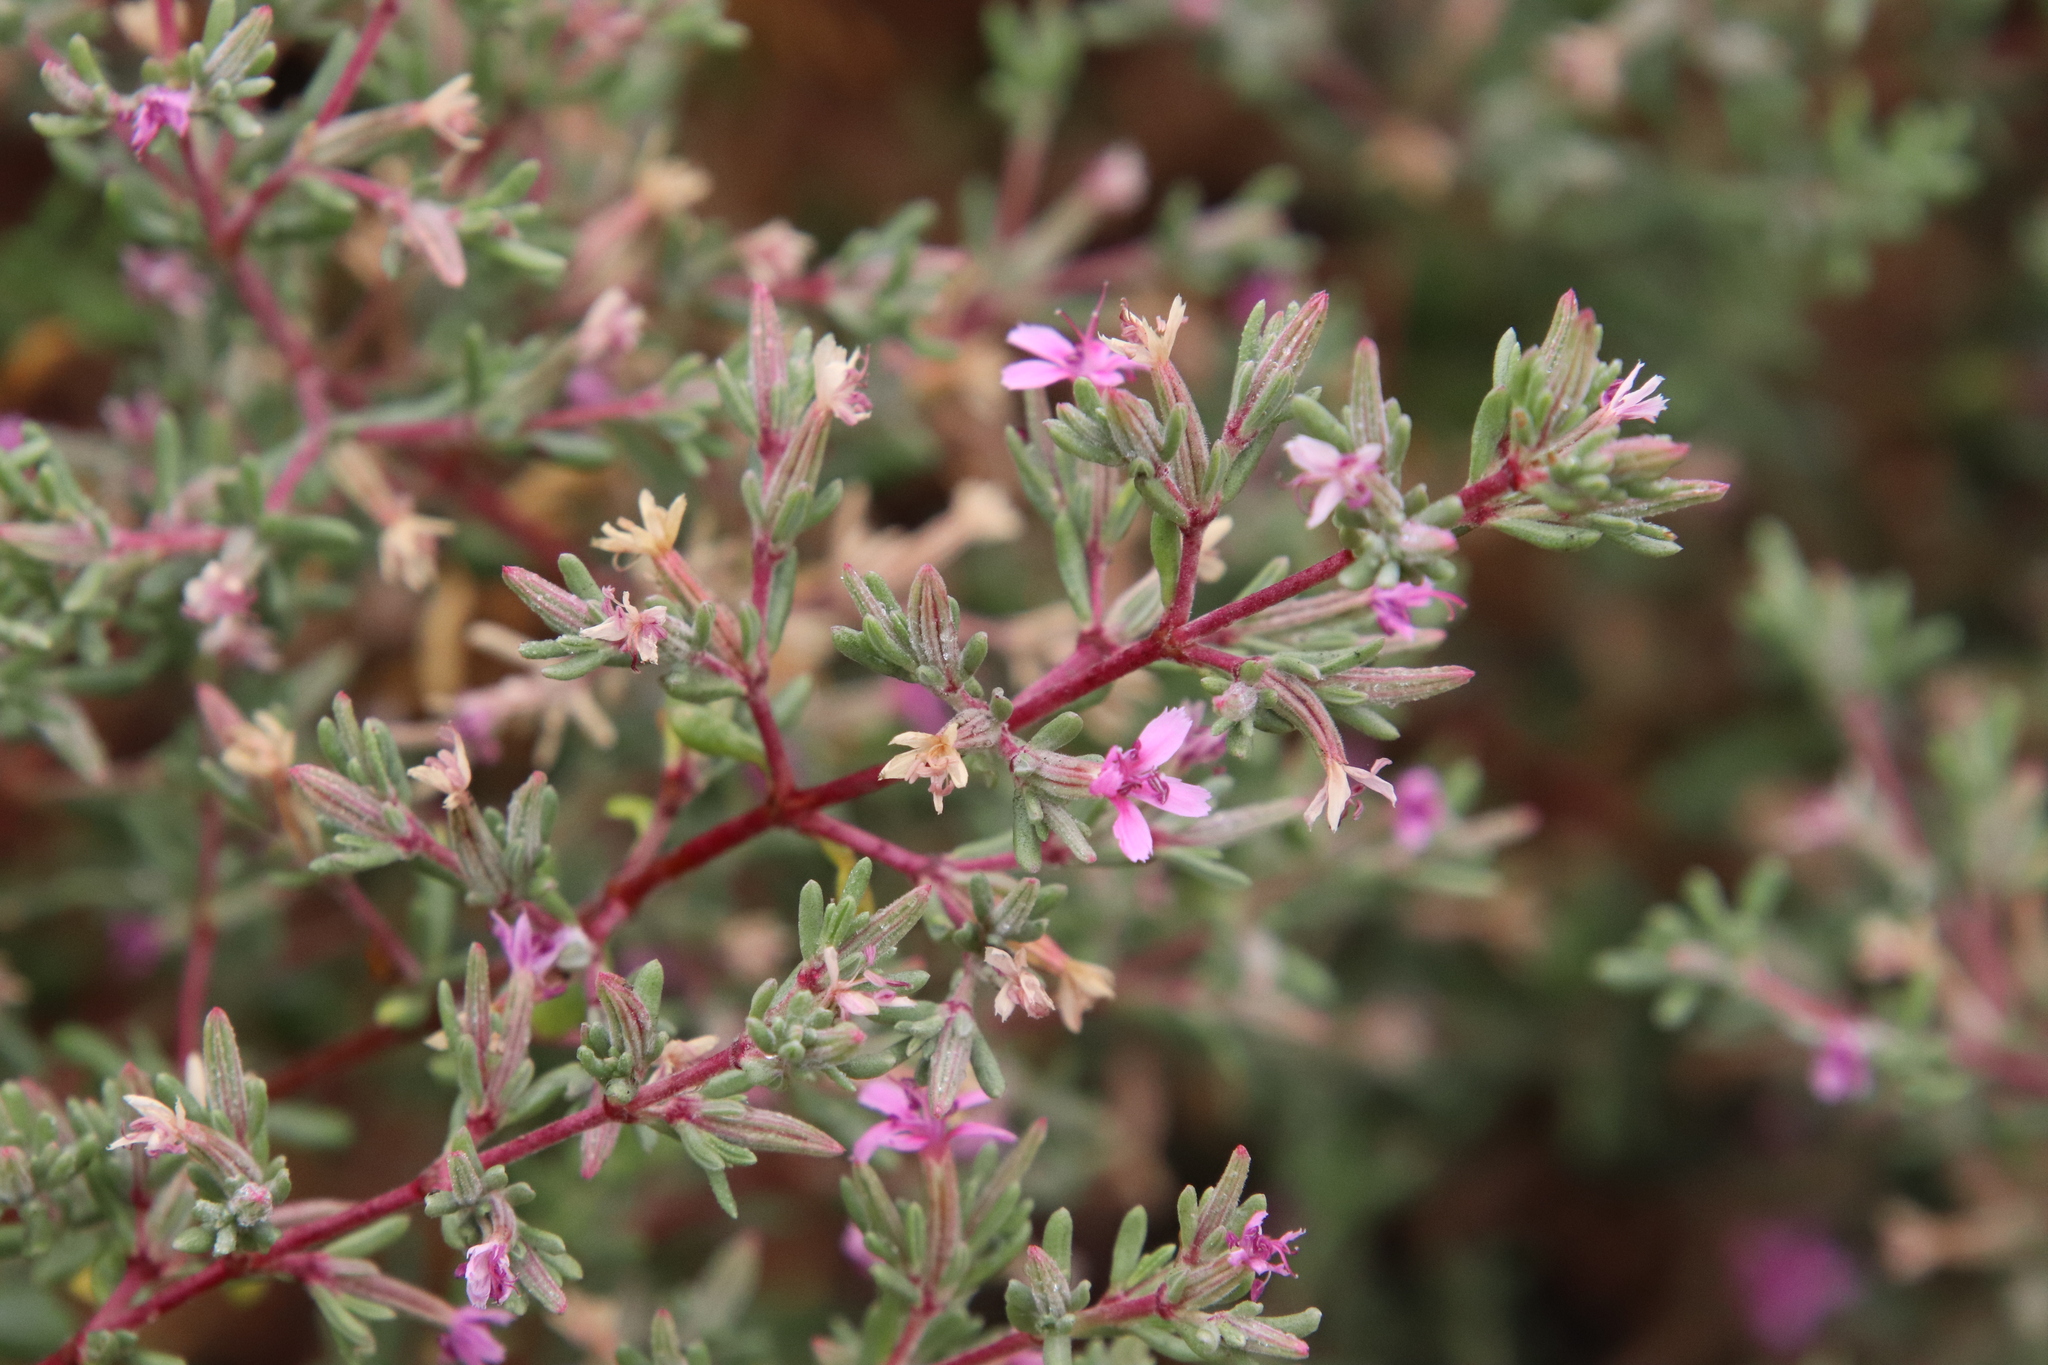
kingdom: Plantae
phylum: Tracheophyta
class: Magnoliopsida
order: Caryophyllales
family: Frankeniaceae
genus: Frankenia
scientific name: Frankenia salina
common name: Alkali seaheath
